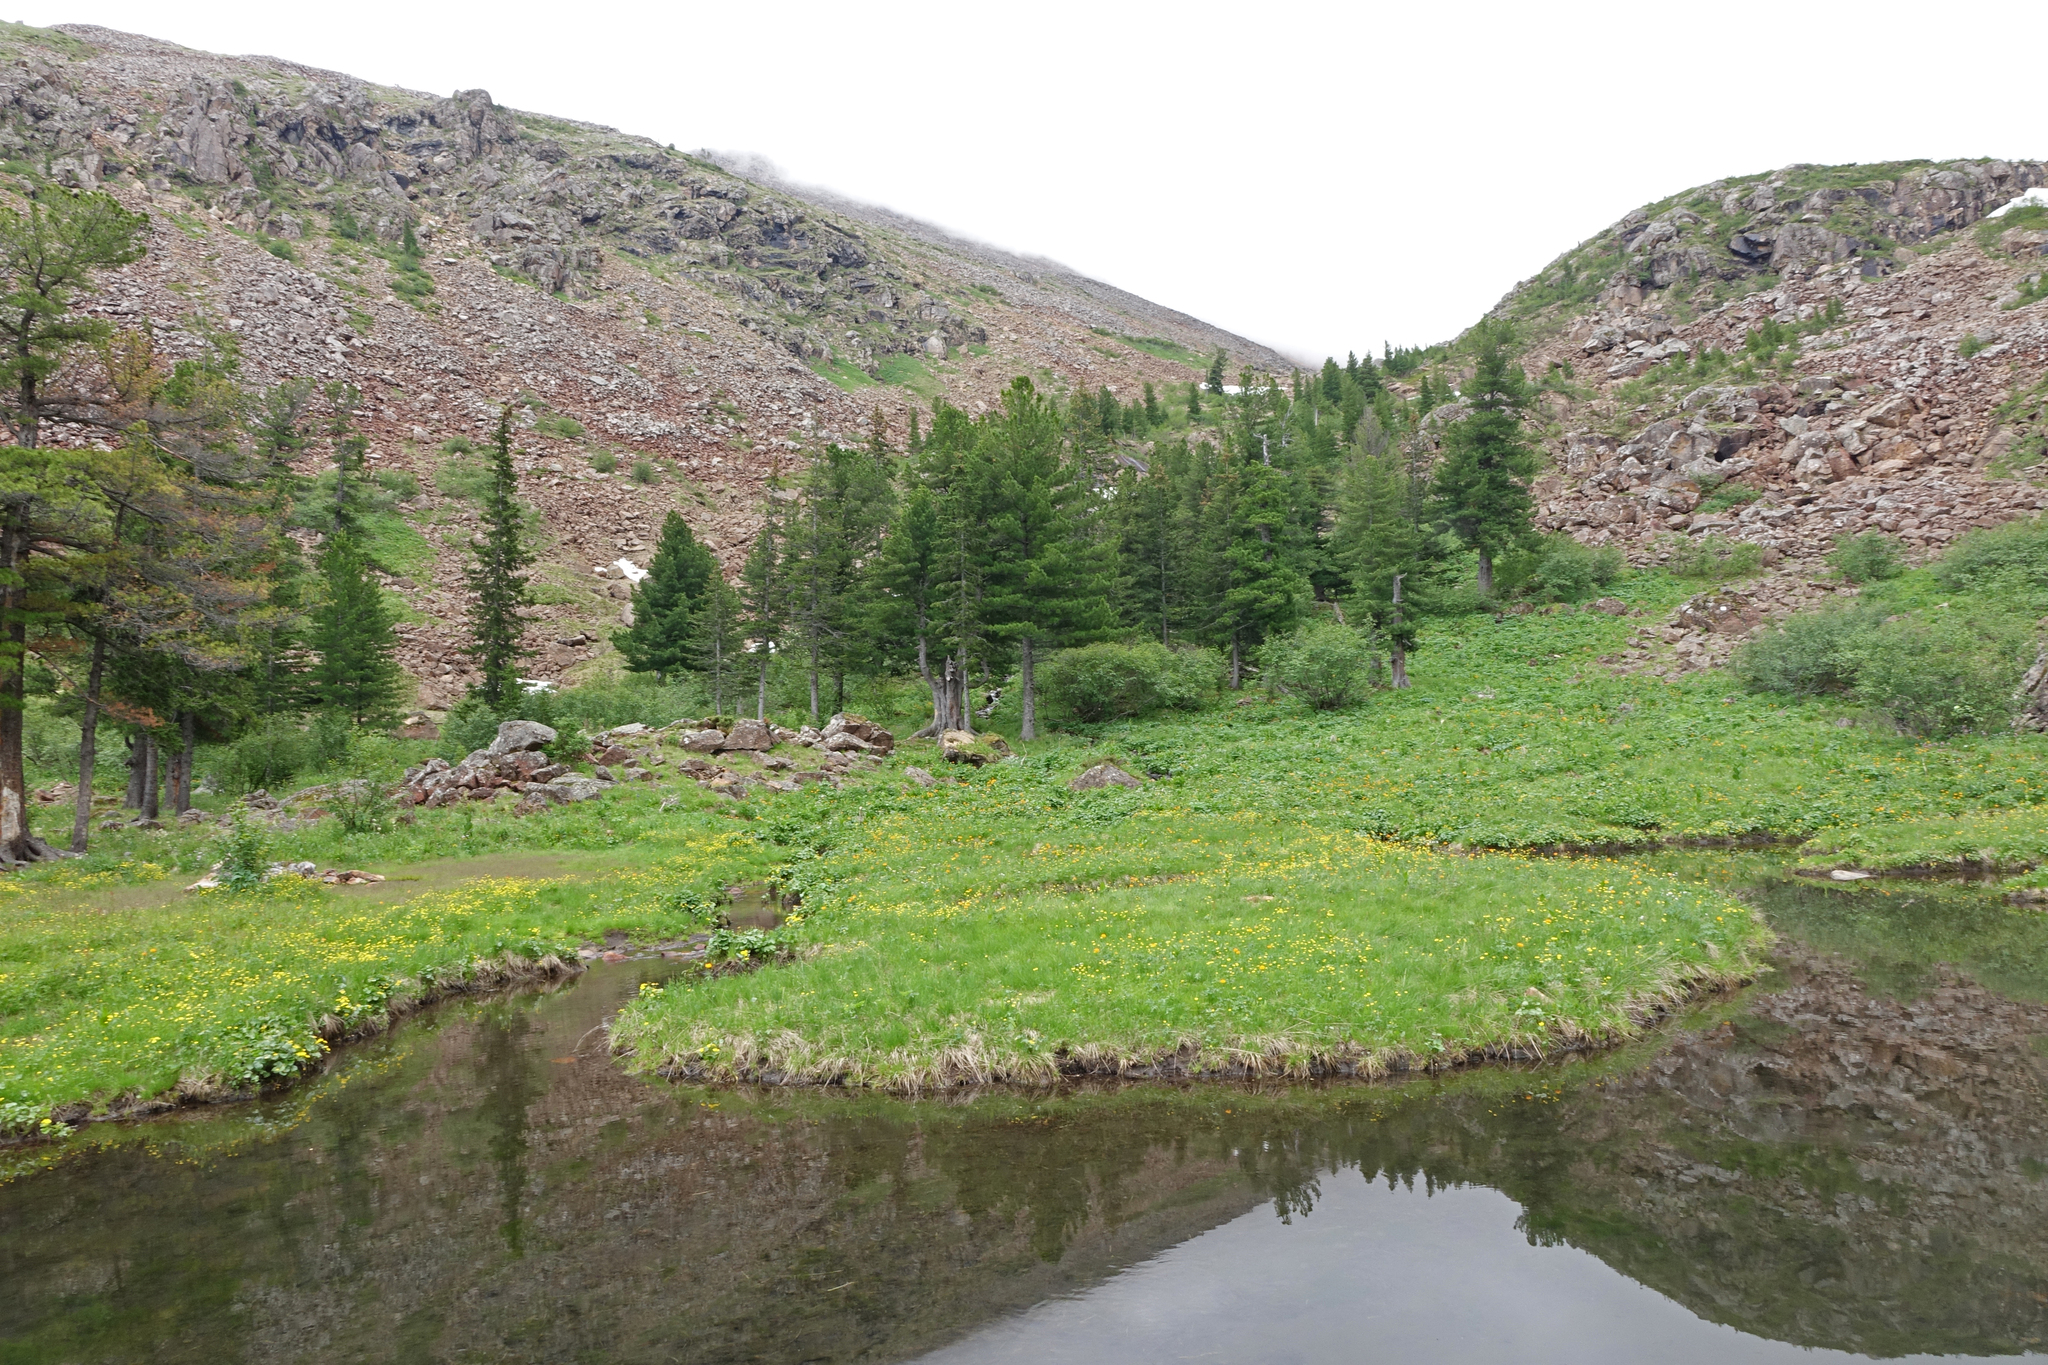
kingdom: Plantae
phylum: Tracheophyta
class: Pinopsida
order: Pinales
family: Pinaceae
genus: Picea
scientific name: Picea obovata
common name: Siberian spruce
